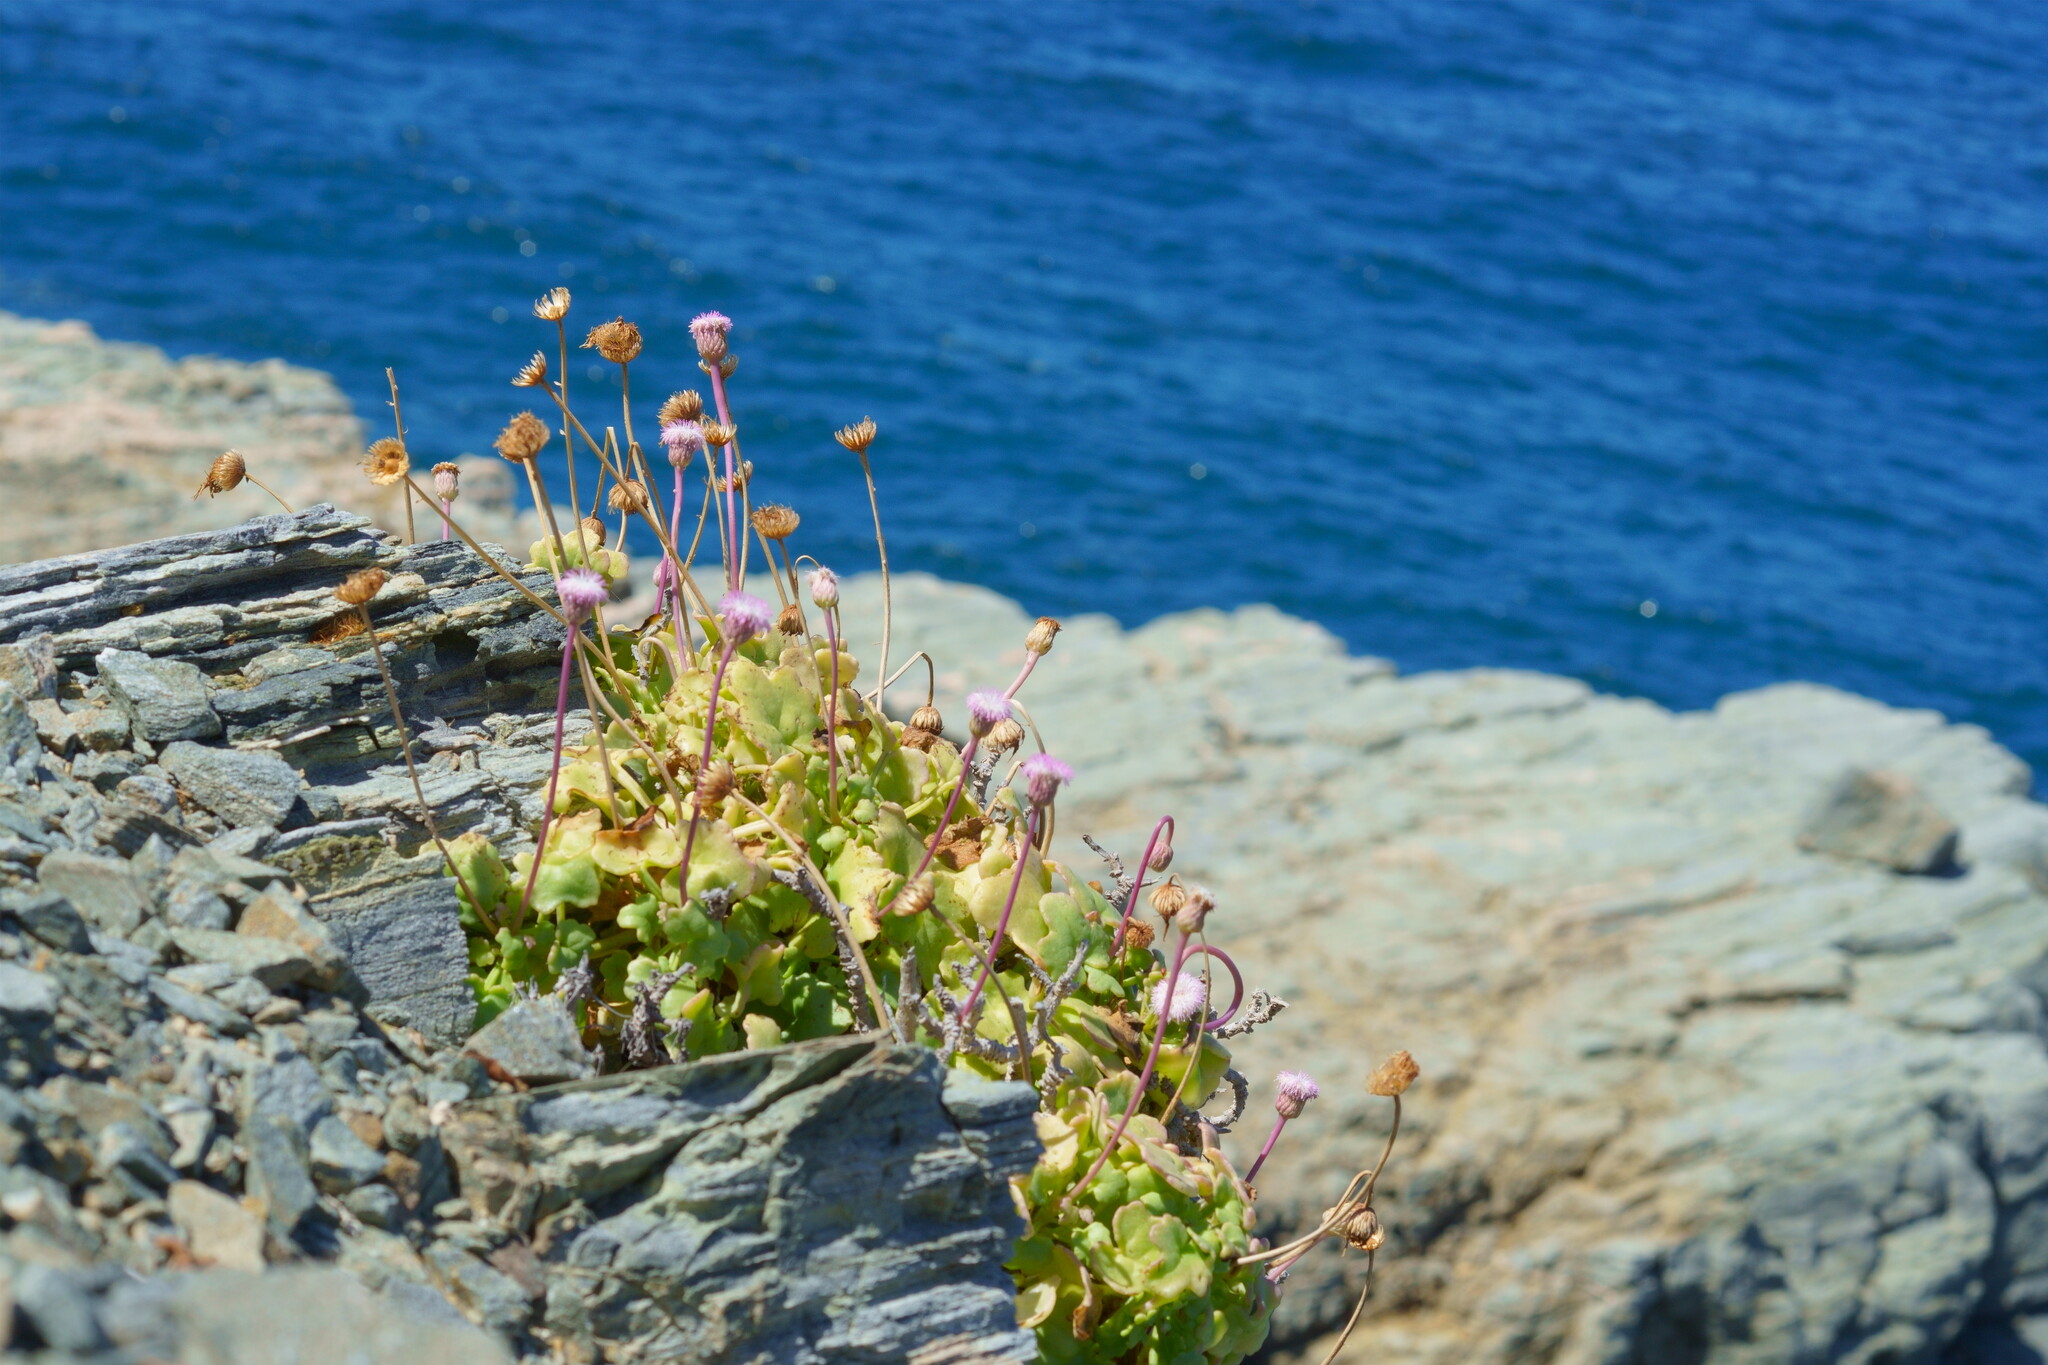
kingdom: Plantae
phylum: Tracheophyta
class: Magnoliopsida
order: Asterales
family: Asteraceae
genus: Hofmeisteria
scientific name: Hofmeisteria fasciculata
